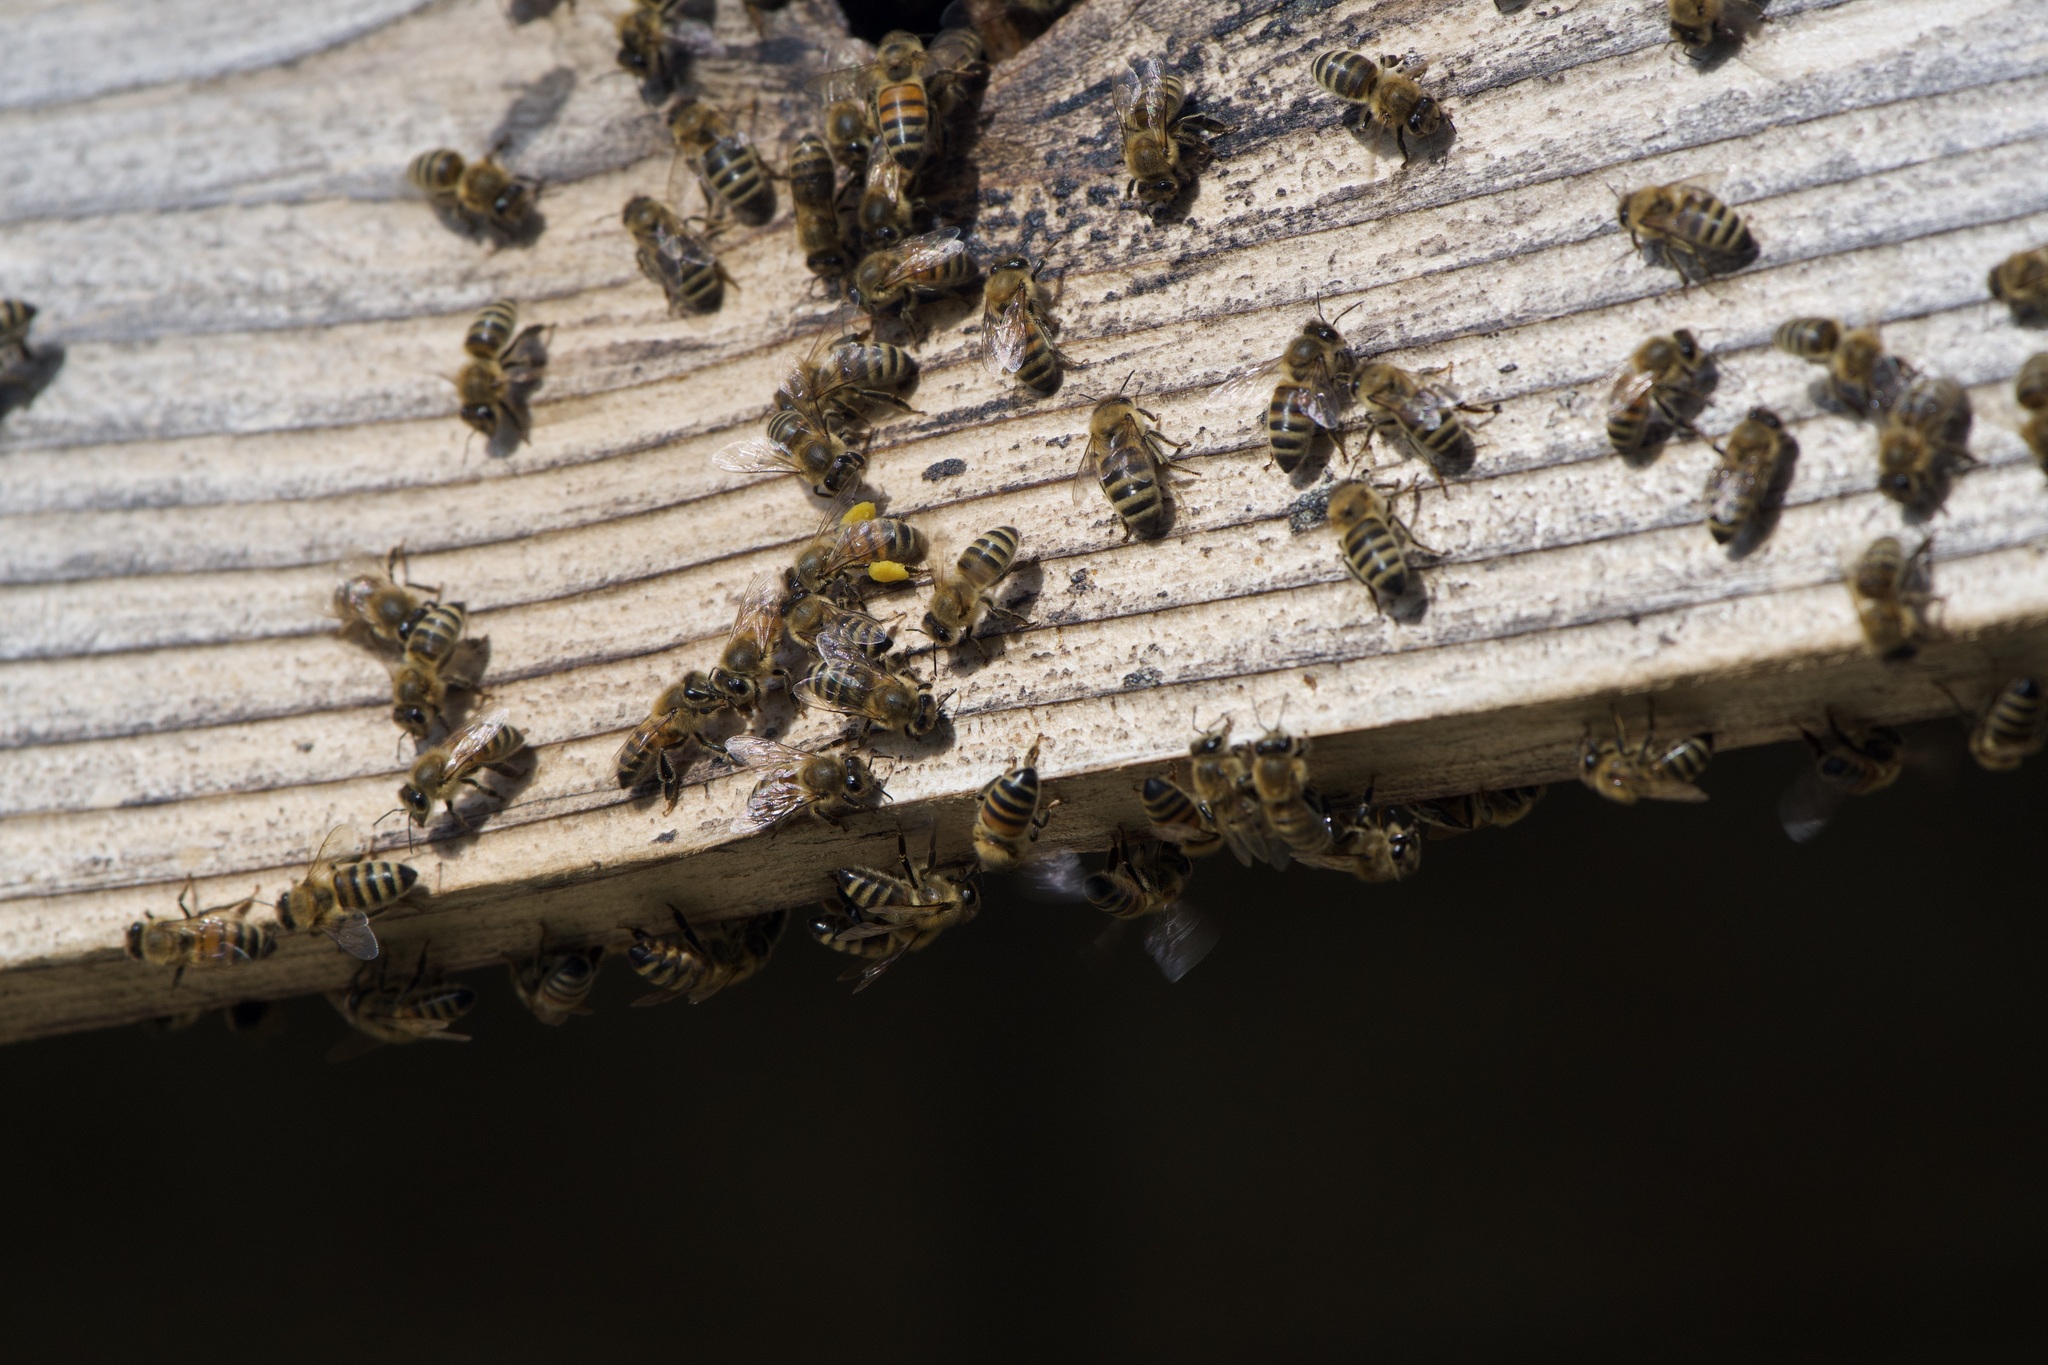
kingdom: Animalia
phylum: Arthropoda
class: Insecta
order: Hymenoptera
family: Apidae
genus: Apis
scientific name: Apis mellifera
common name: Honey bee
